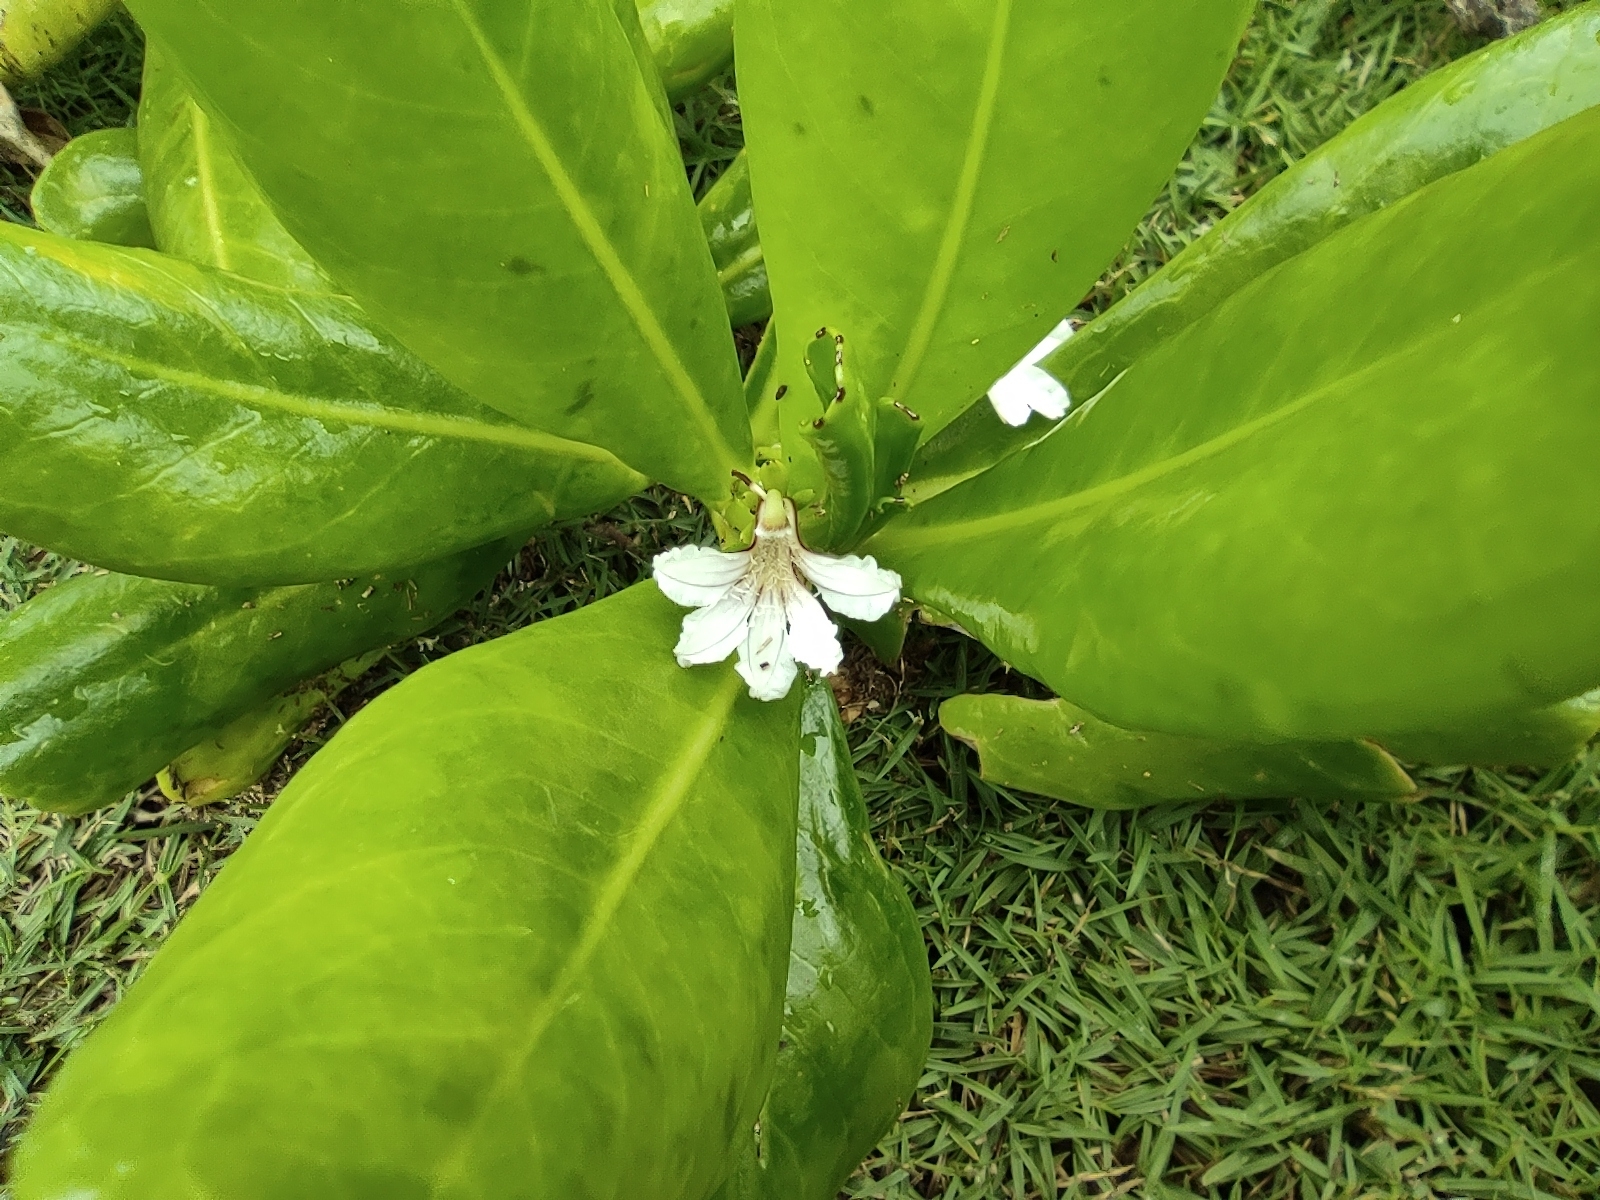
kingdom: Plantae
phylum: Tracheophyta
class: Magnoliopsida
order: Asterales
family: Goodeniaceae
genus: Scaevola
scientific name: Scaevola taccada
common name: Sea lettucetree
